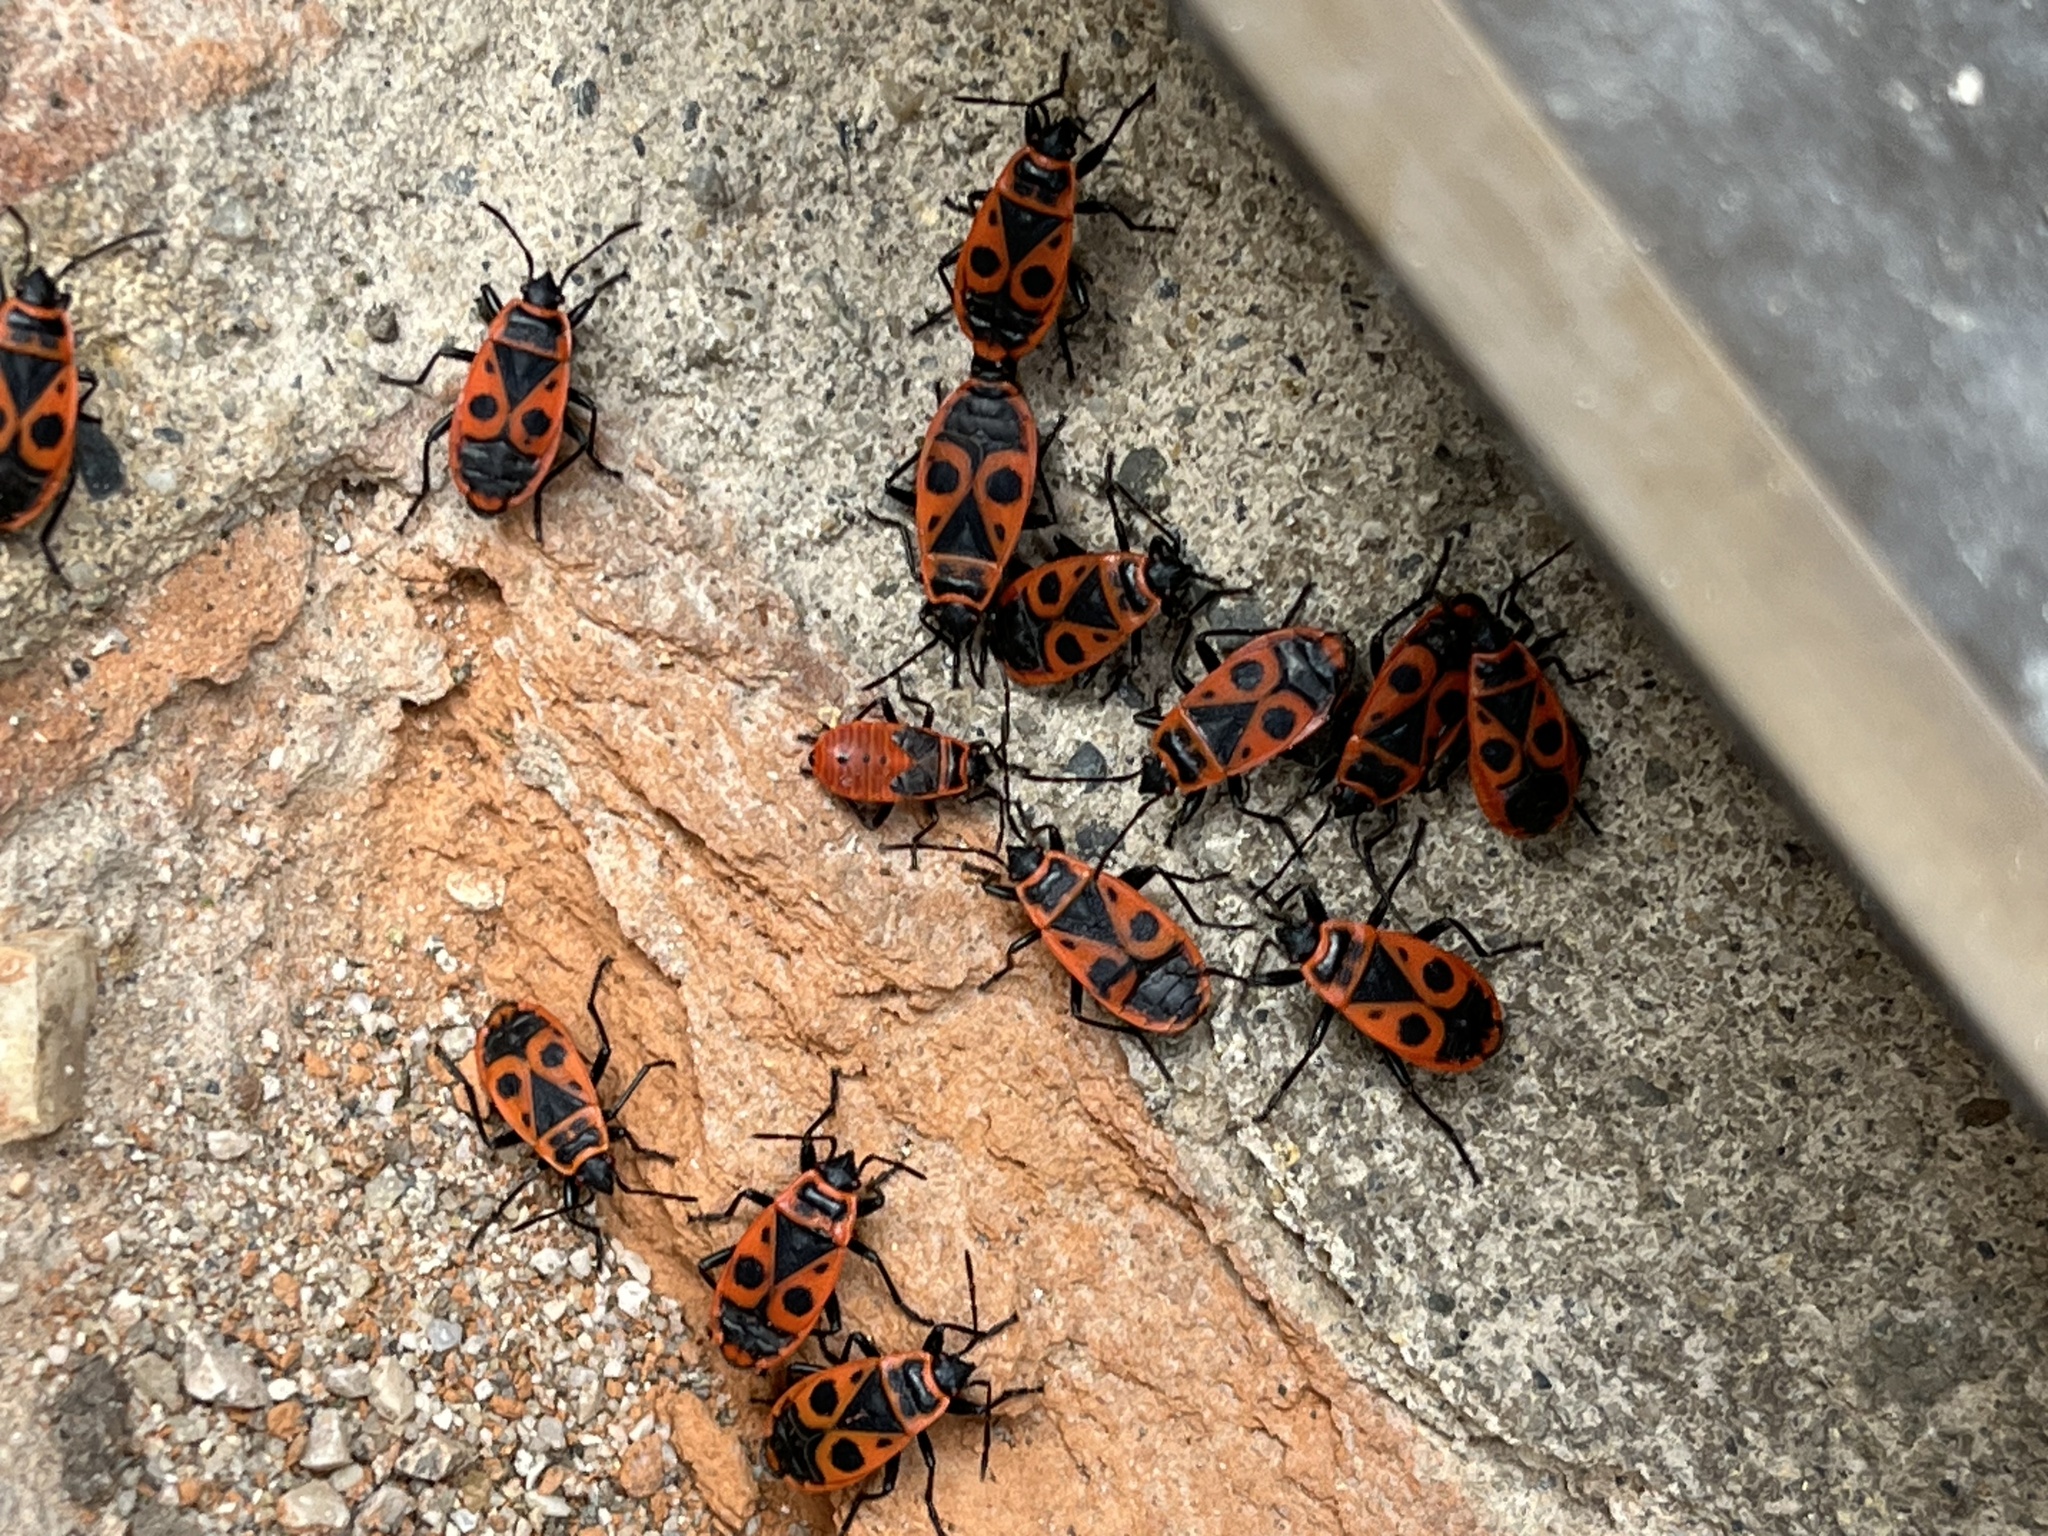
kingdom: Animalia
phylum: Arthropoda
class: Insecta
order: Hemiptera
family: Pyrrhocoridae
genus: Pyrrhocoris
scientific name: Pyrrhocoris apterus
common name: Firebug
